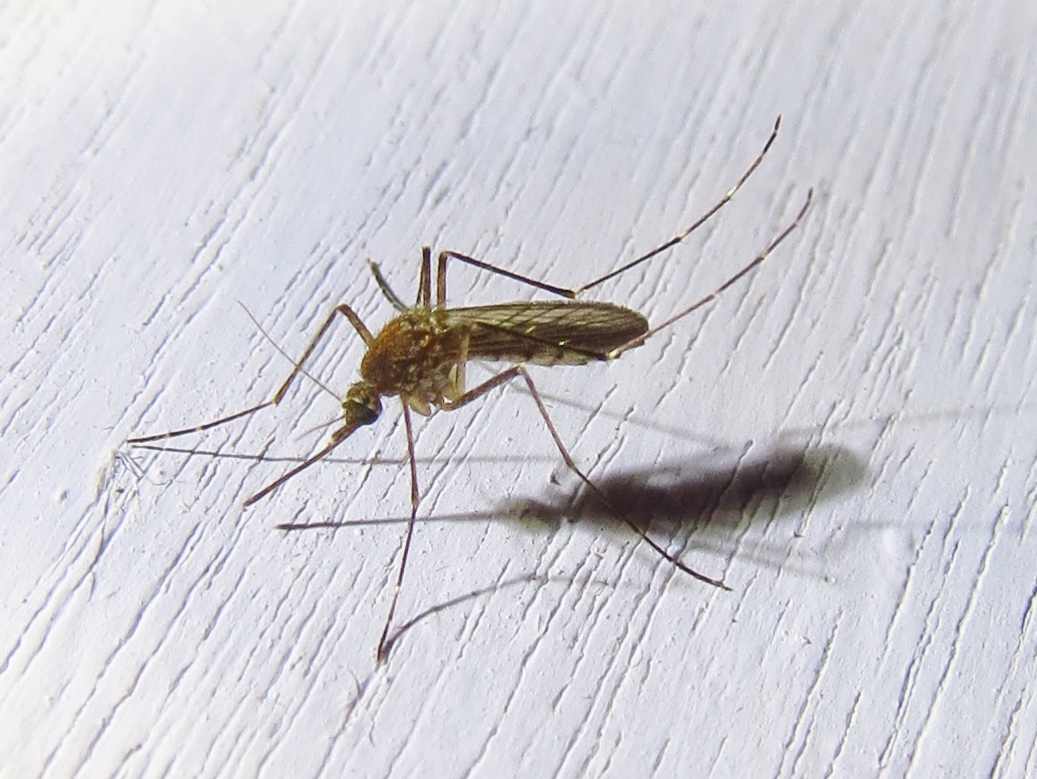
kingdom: Animalia
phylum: Arthropoda
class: Insecta
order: Diptera
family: Culicidae
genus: Aedes
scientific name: Aedes vexans
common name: Inland floodwater mosquito
